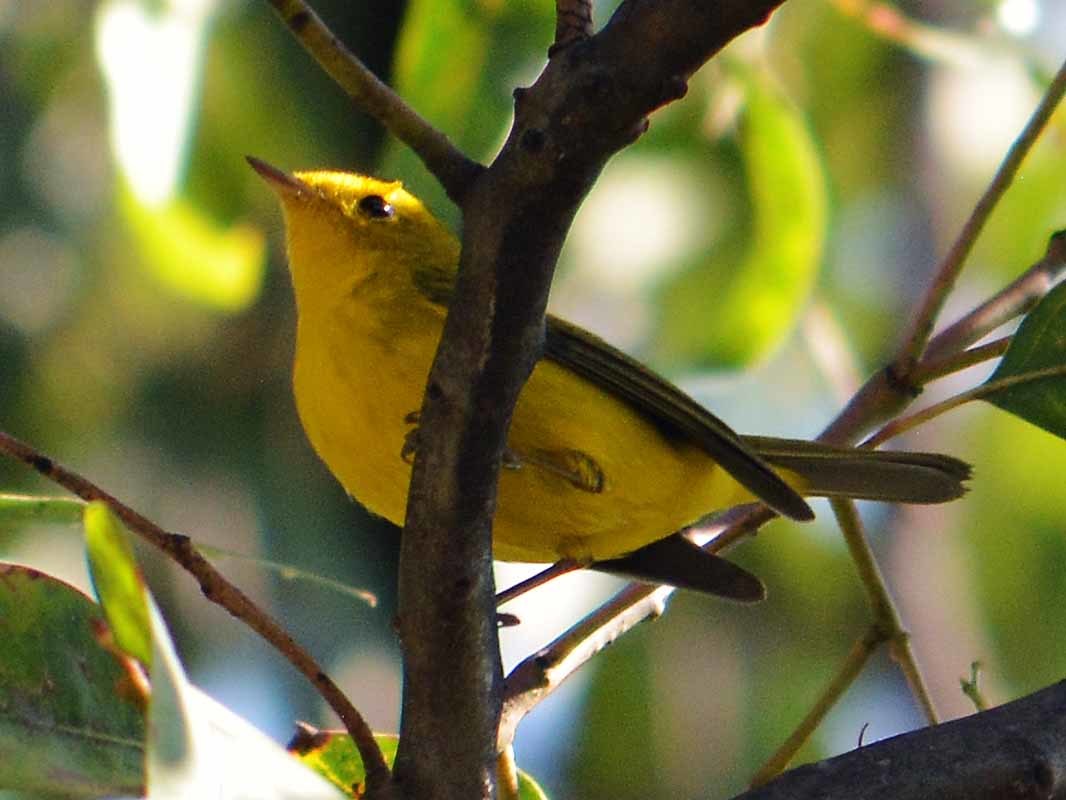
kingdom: Animalia
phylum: Chordata
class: Aves
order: Passeriformes
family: Parulidae
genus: Cardellina
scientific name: Cardellina pusilla
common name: Wilson's warbler
